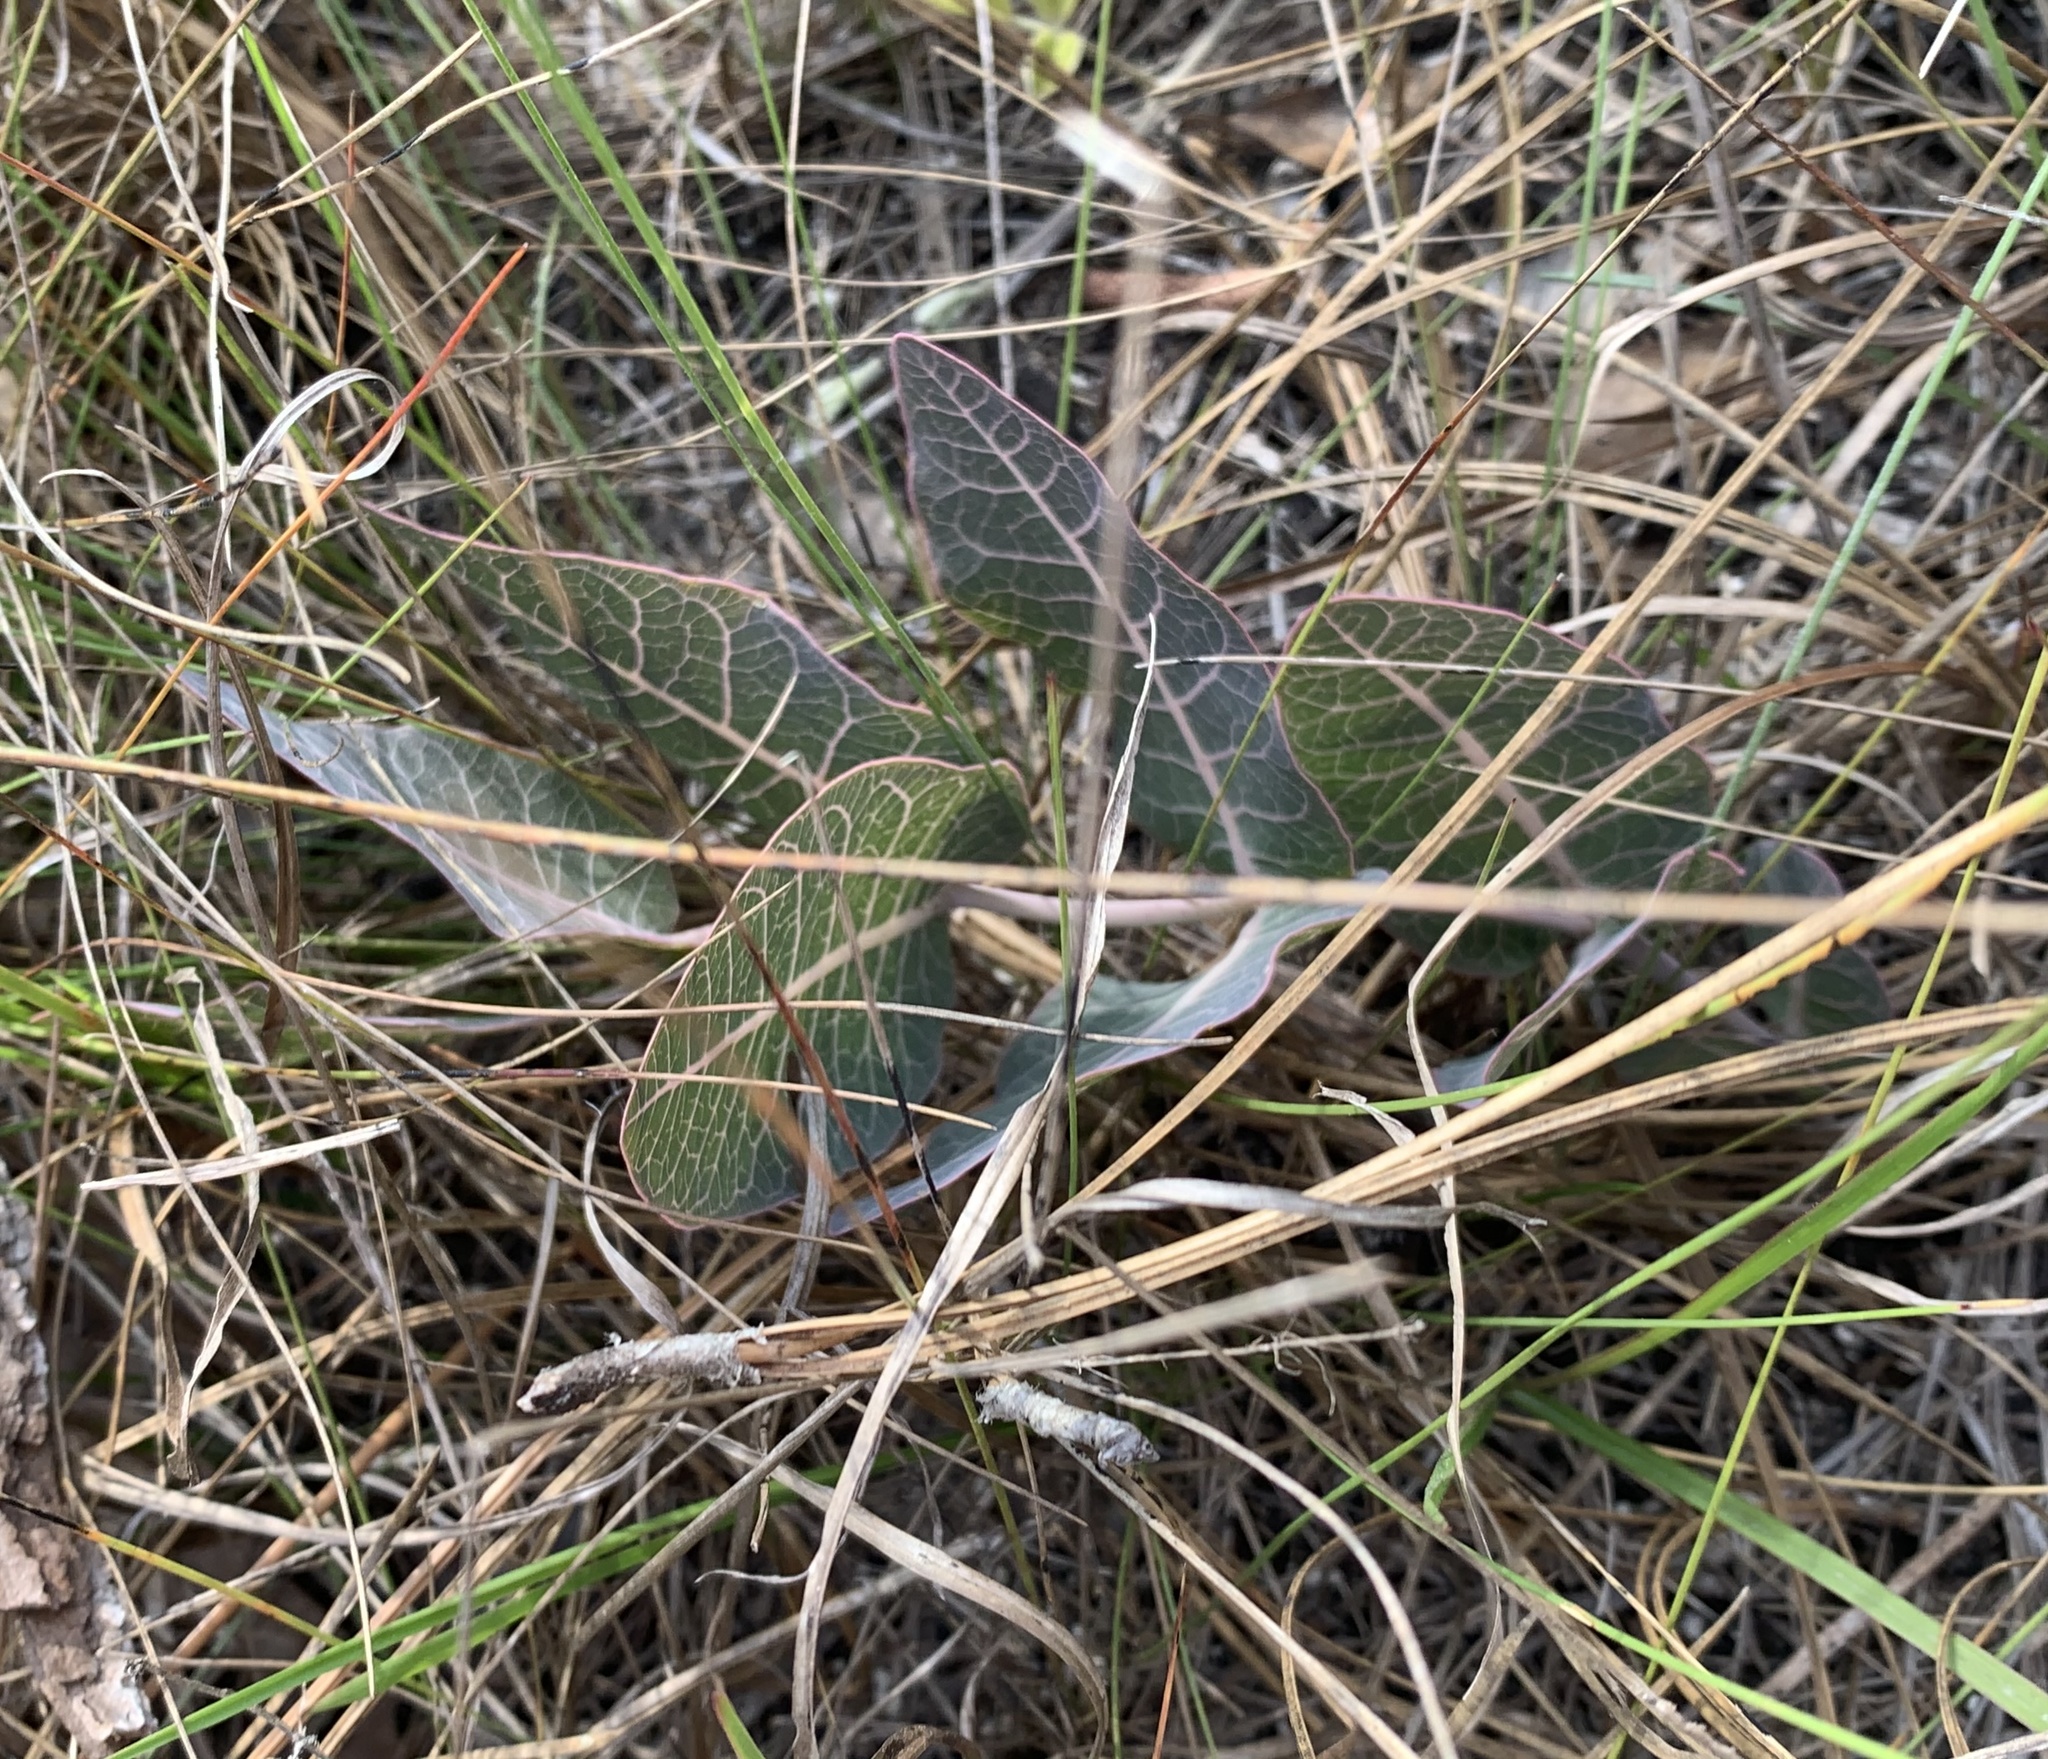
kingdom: Plantae
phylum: Tracheophyta
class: Magnoliopsida
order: Gentianales
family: Apocynaceae
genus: Asclepias
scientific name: Asclepias humistrata
